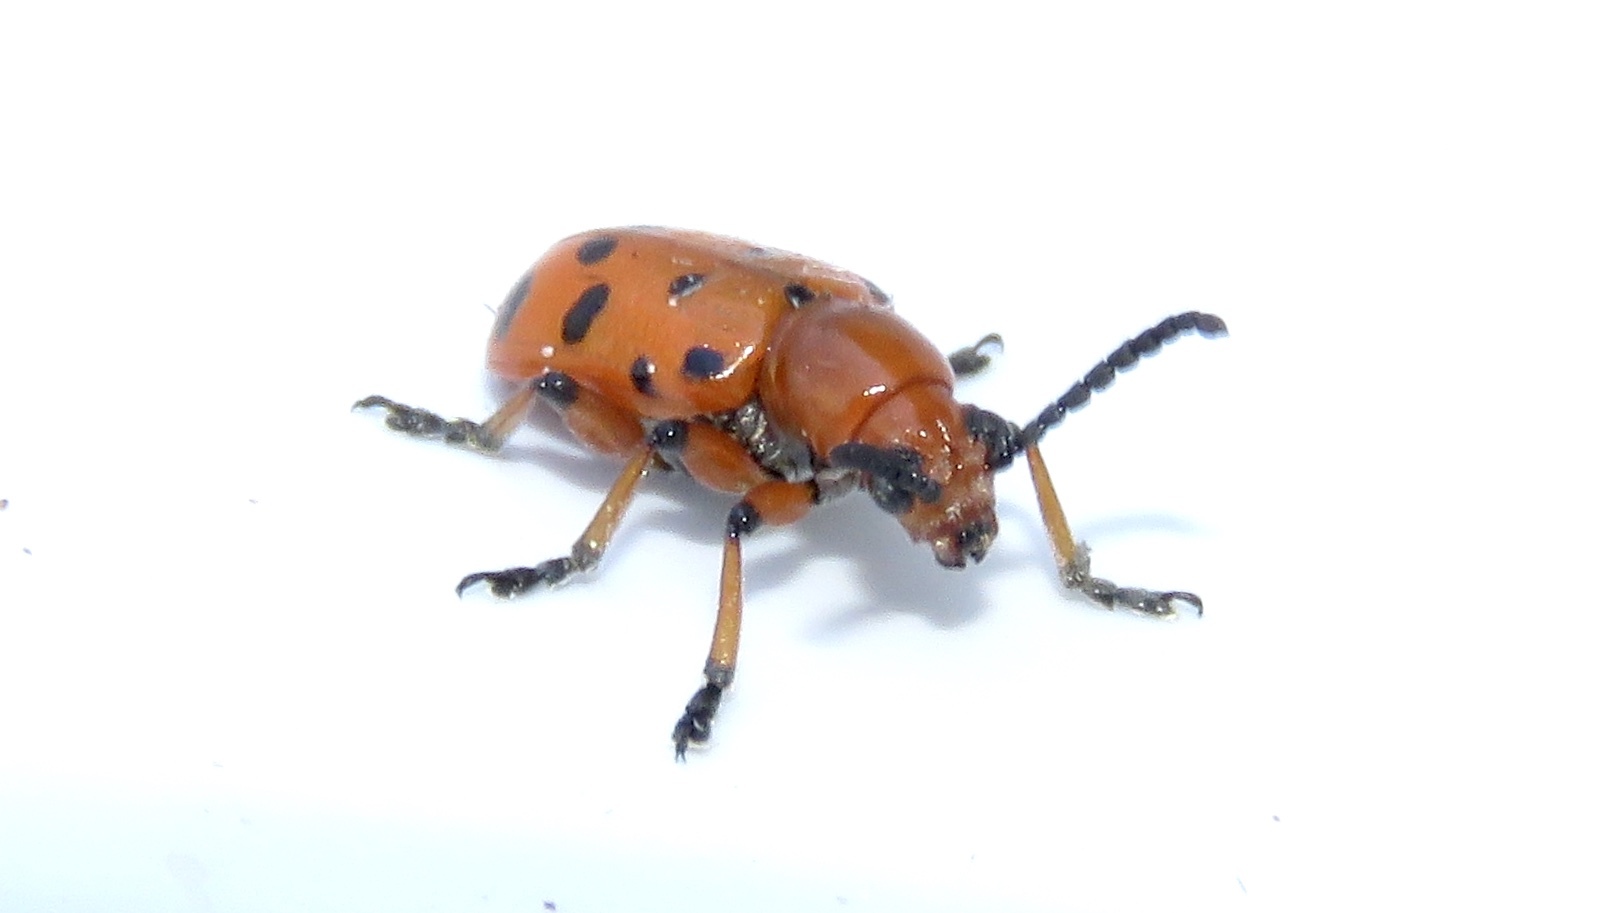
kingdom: Animalia
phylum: Arthropoda
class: Insecta
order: Coleoptera
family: Chrysomelidae
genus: Crioceris
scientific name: Crioceris duodecimpunctata
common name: Twelve-spotted asparagus beetle
